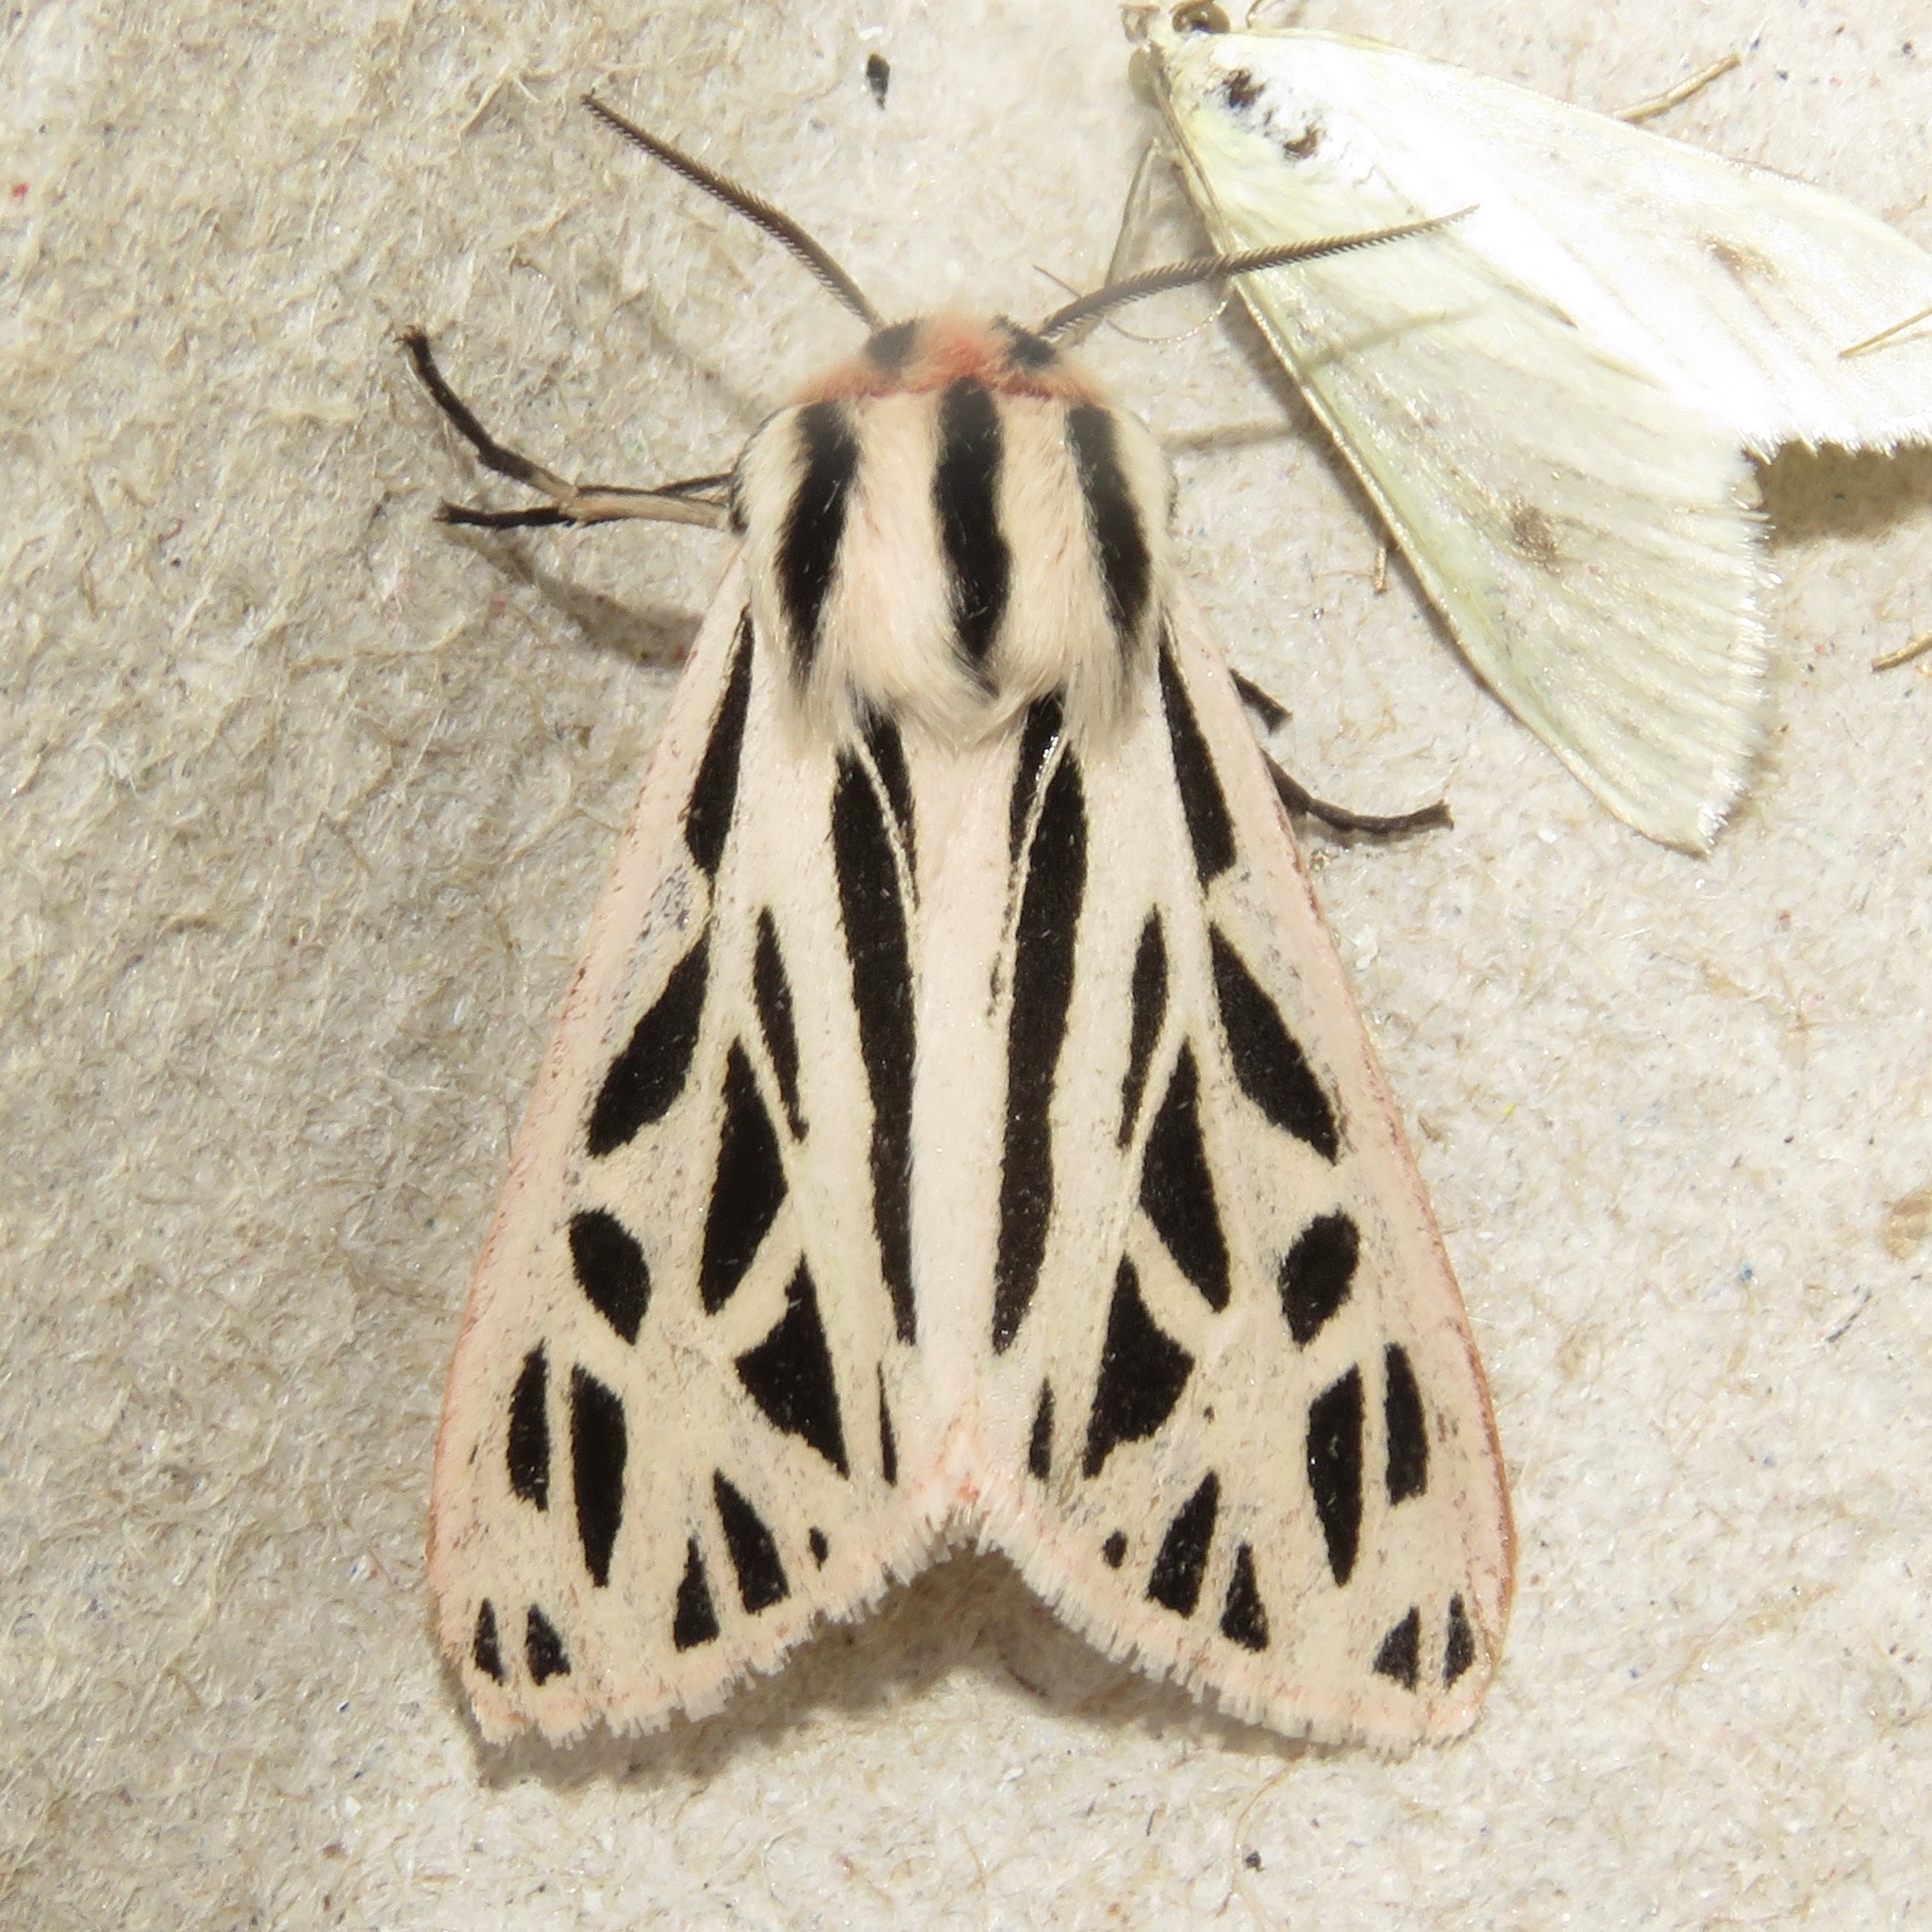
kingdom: Animalia
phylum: Arthropoda
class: Insecta
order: Lepidoptera
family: Erebidae
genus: Apantesis
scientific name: Apantesis arge
